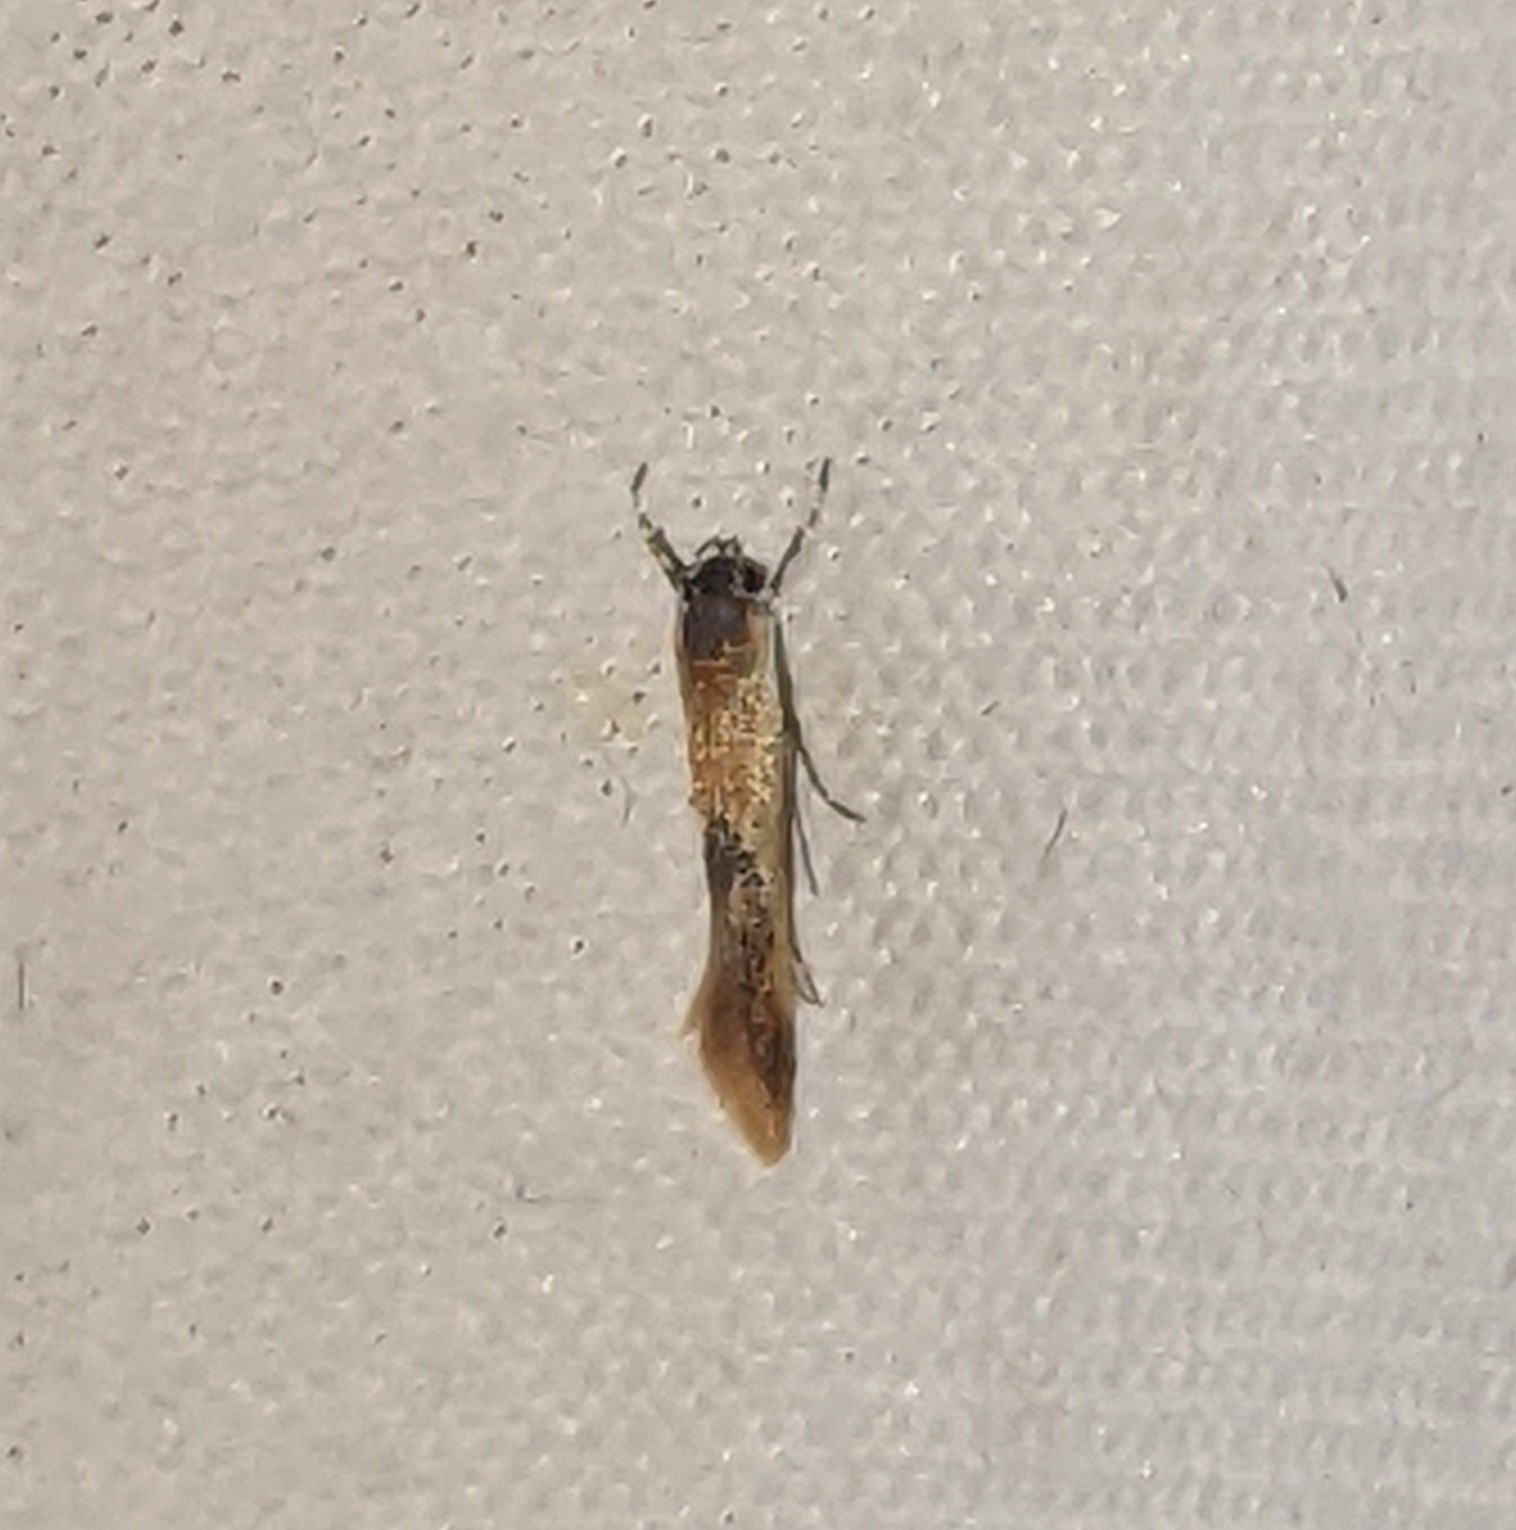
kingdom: Animalia
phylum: Arthropoda
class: Insecta
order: Lepidoptera
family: Oecophoridae
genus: Batia
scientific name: Batia lunaris
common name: Moth
